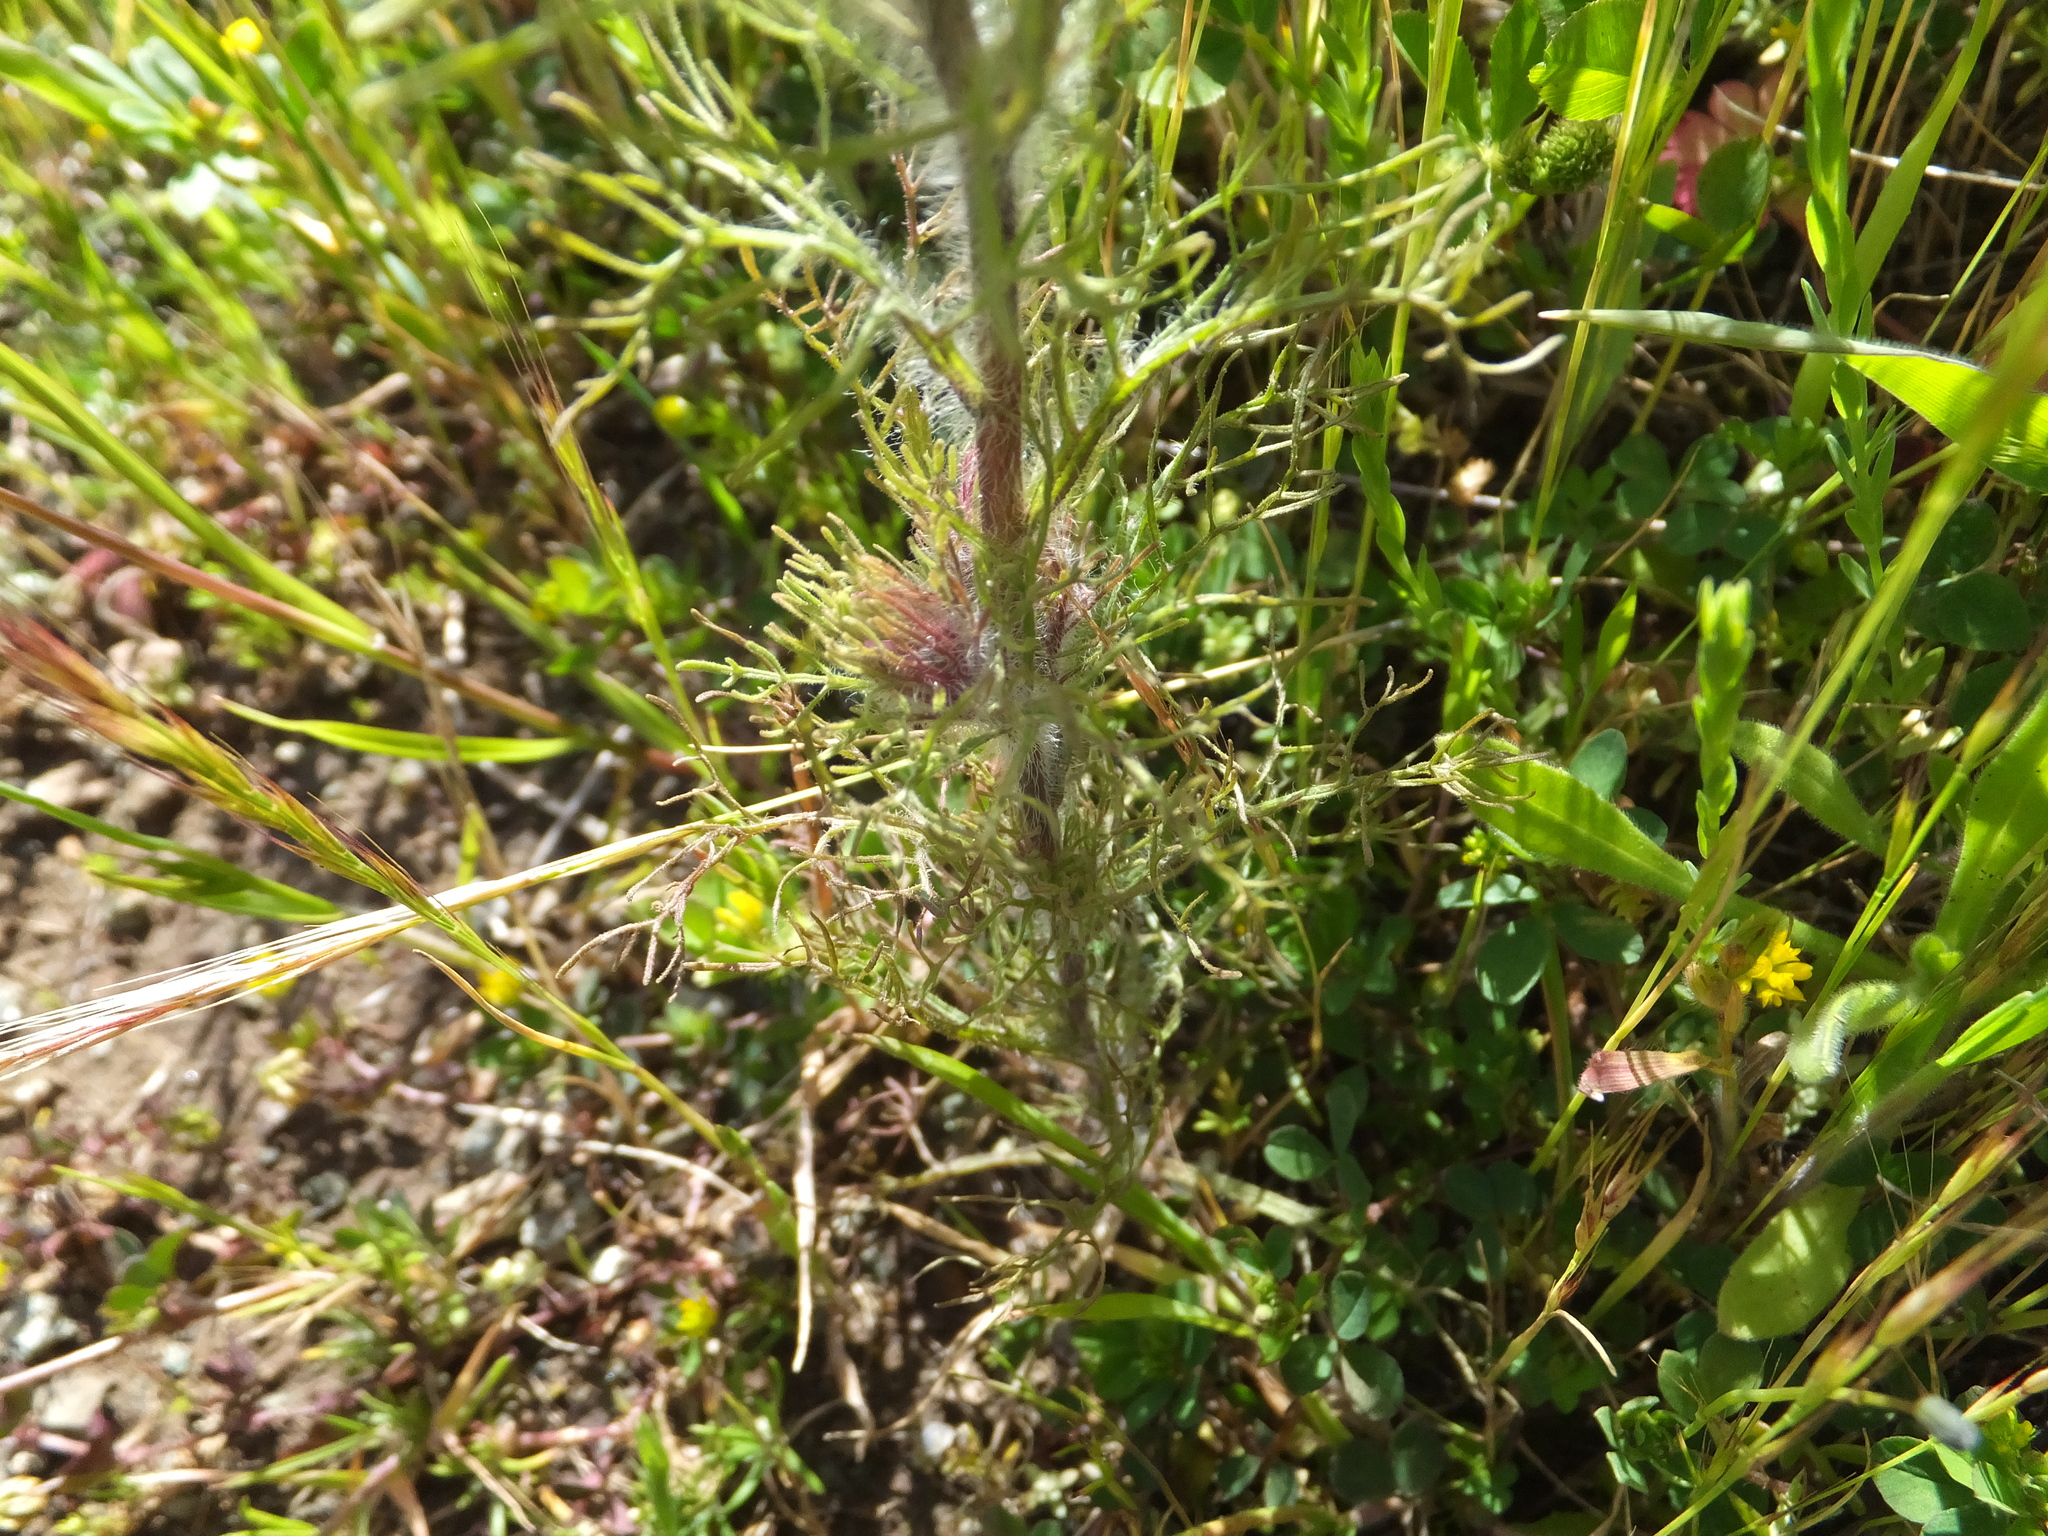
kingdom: Plantae
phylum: Tracheophyta
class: Magnoliopsida
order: Lamiales
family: Orobanchaceae
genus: Castilleja
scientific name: Castilleja exserta
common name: Purple owl-clover
